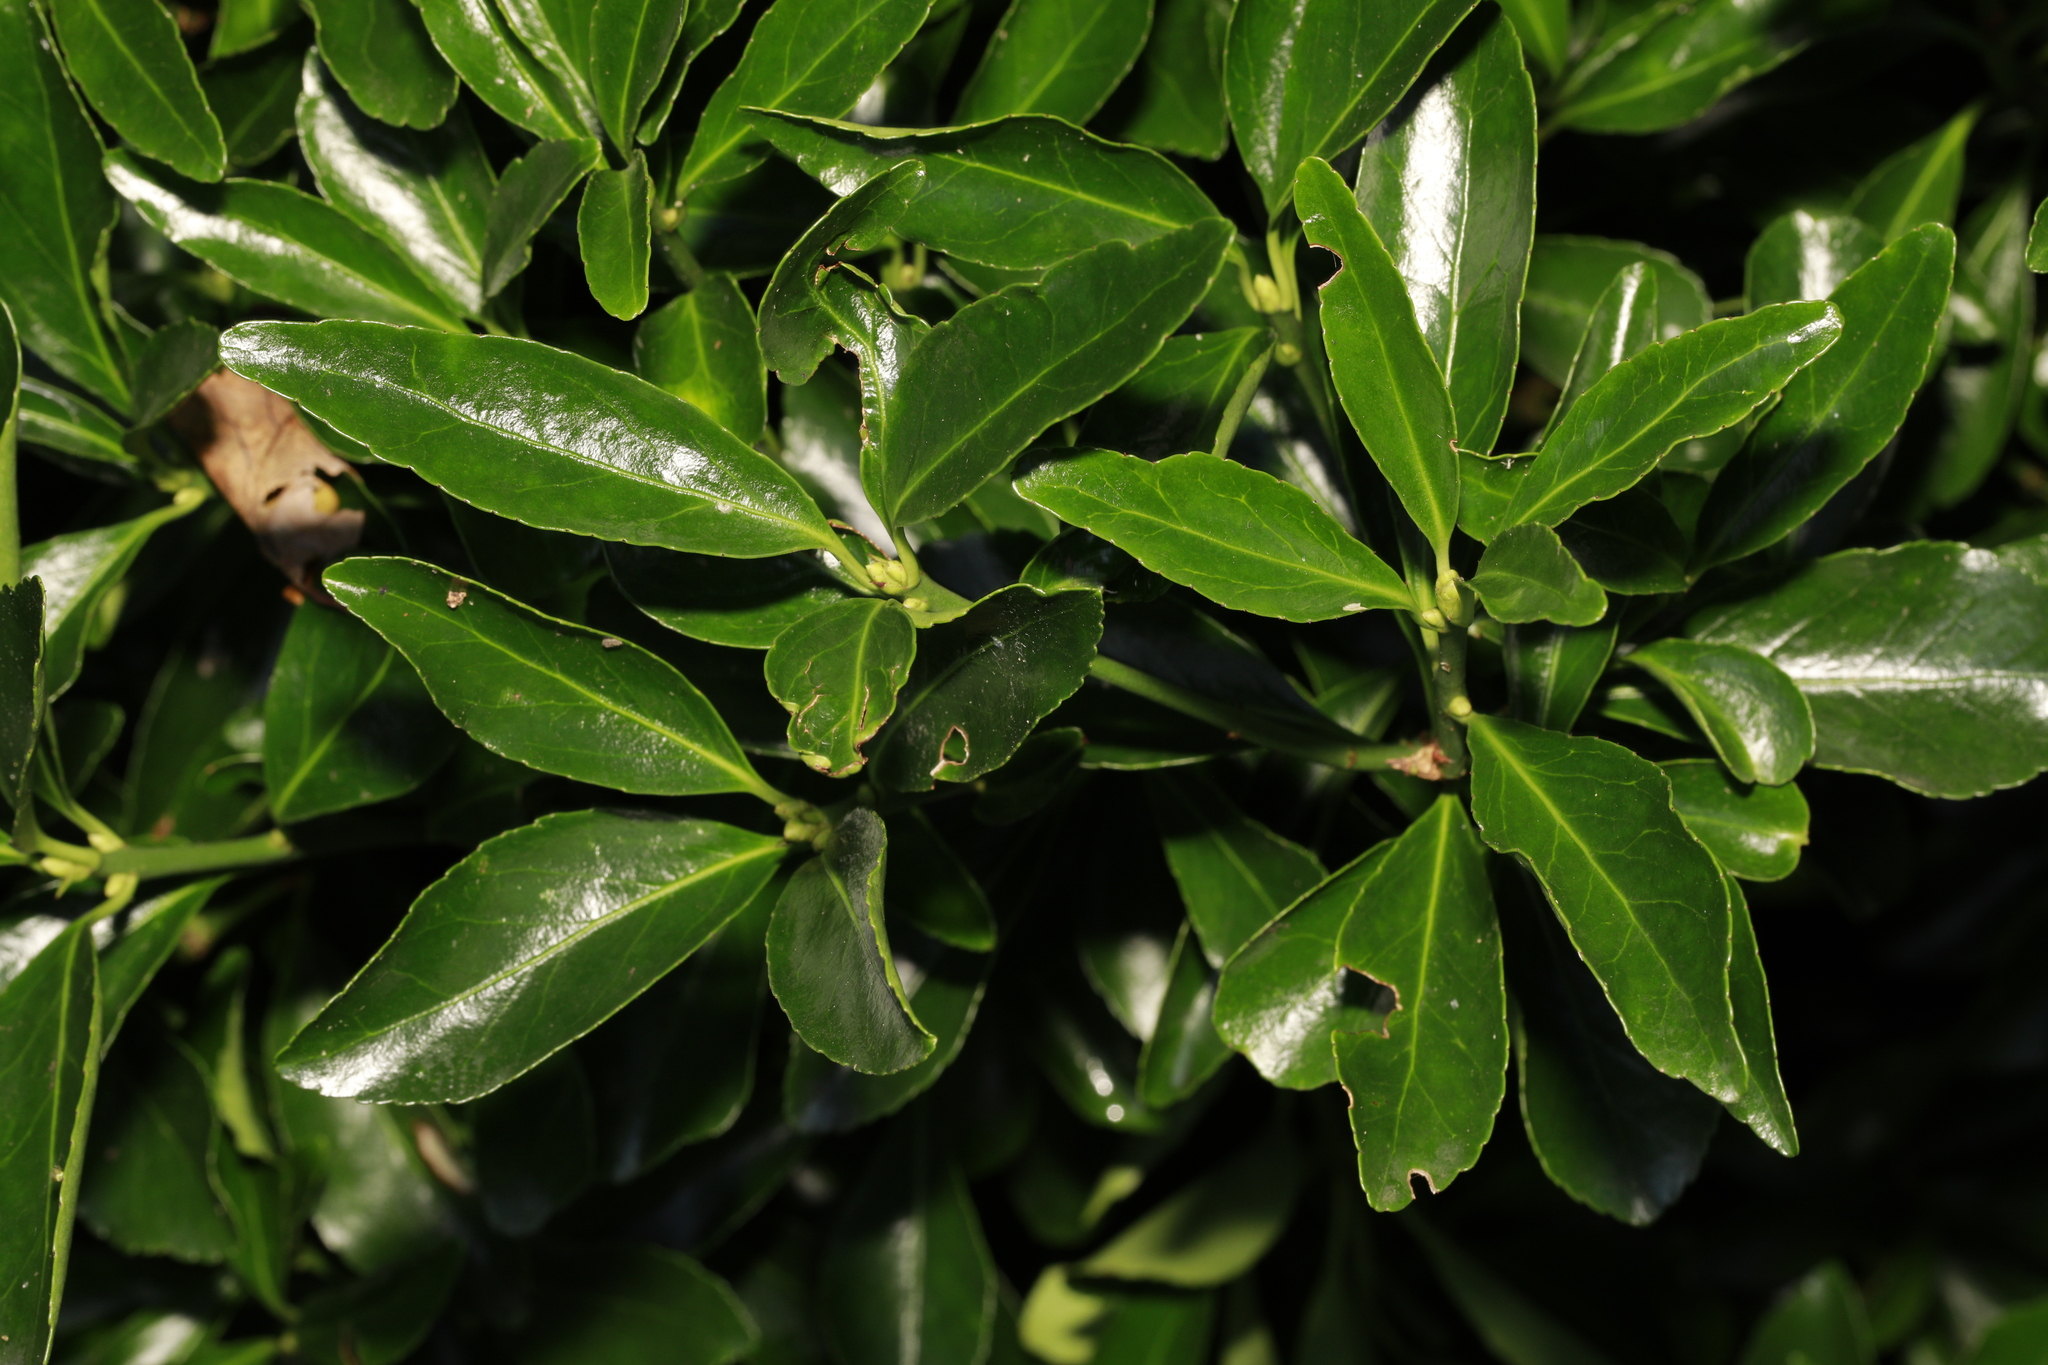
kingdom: Plantae
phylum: Tracheophyta
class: Magnoliopsida
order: Celastrales
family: Celastraceae
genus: Euonymus
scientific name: Euonymus japonicus
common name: Japanese spindletree
